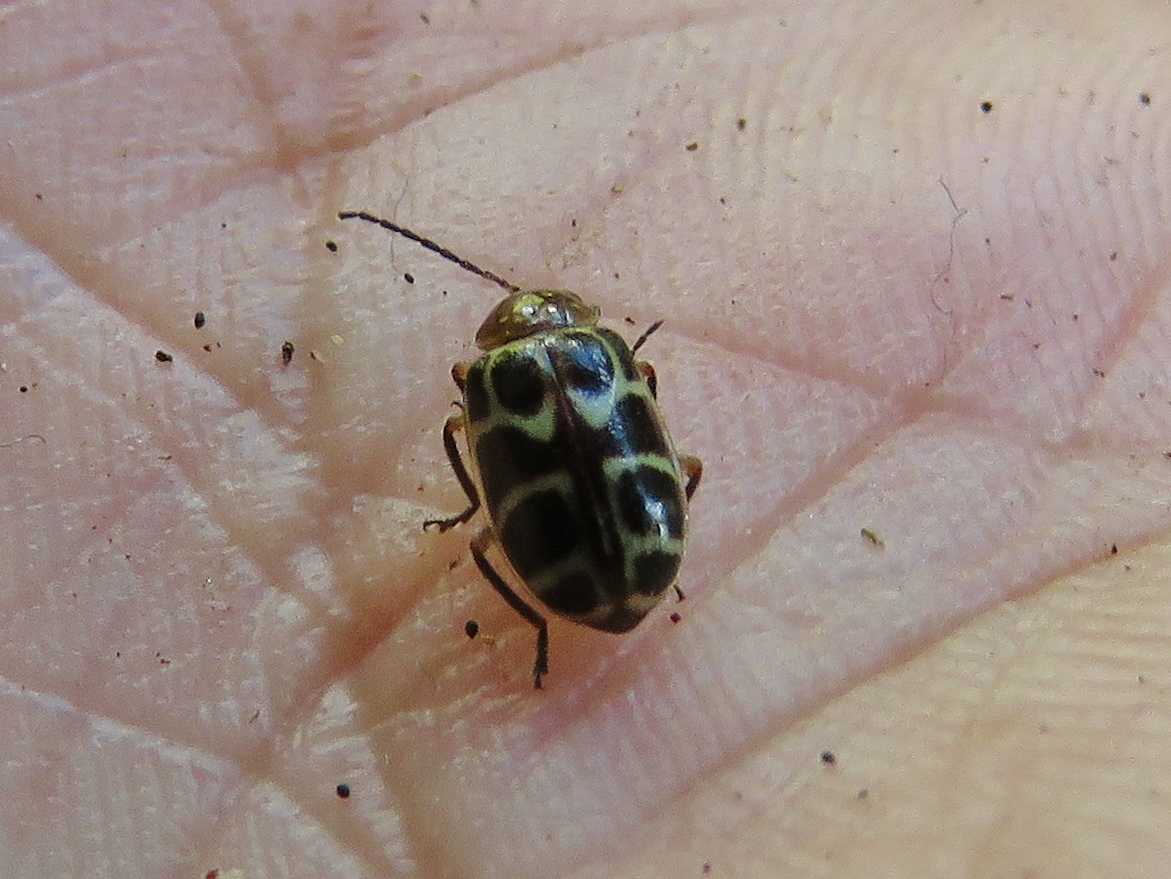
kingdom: Animalia
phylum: Arthropoda
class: Insecta
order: Coleoptera
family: Chrysomelidae
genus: Exora
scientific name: Exora olivacea
